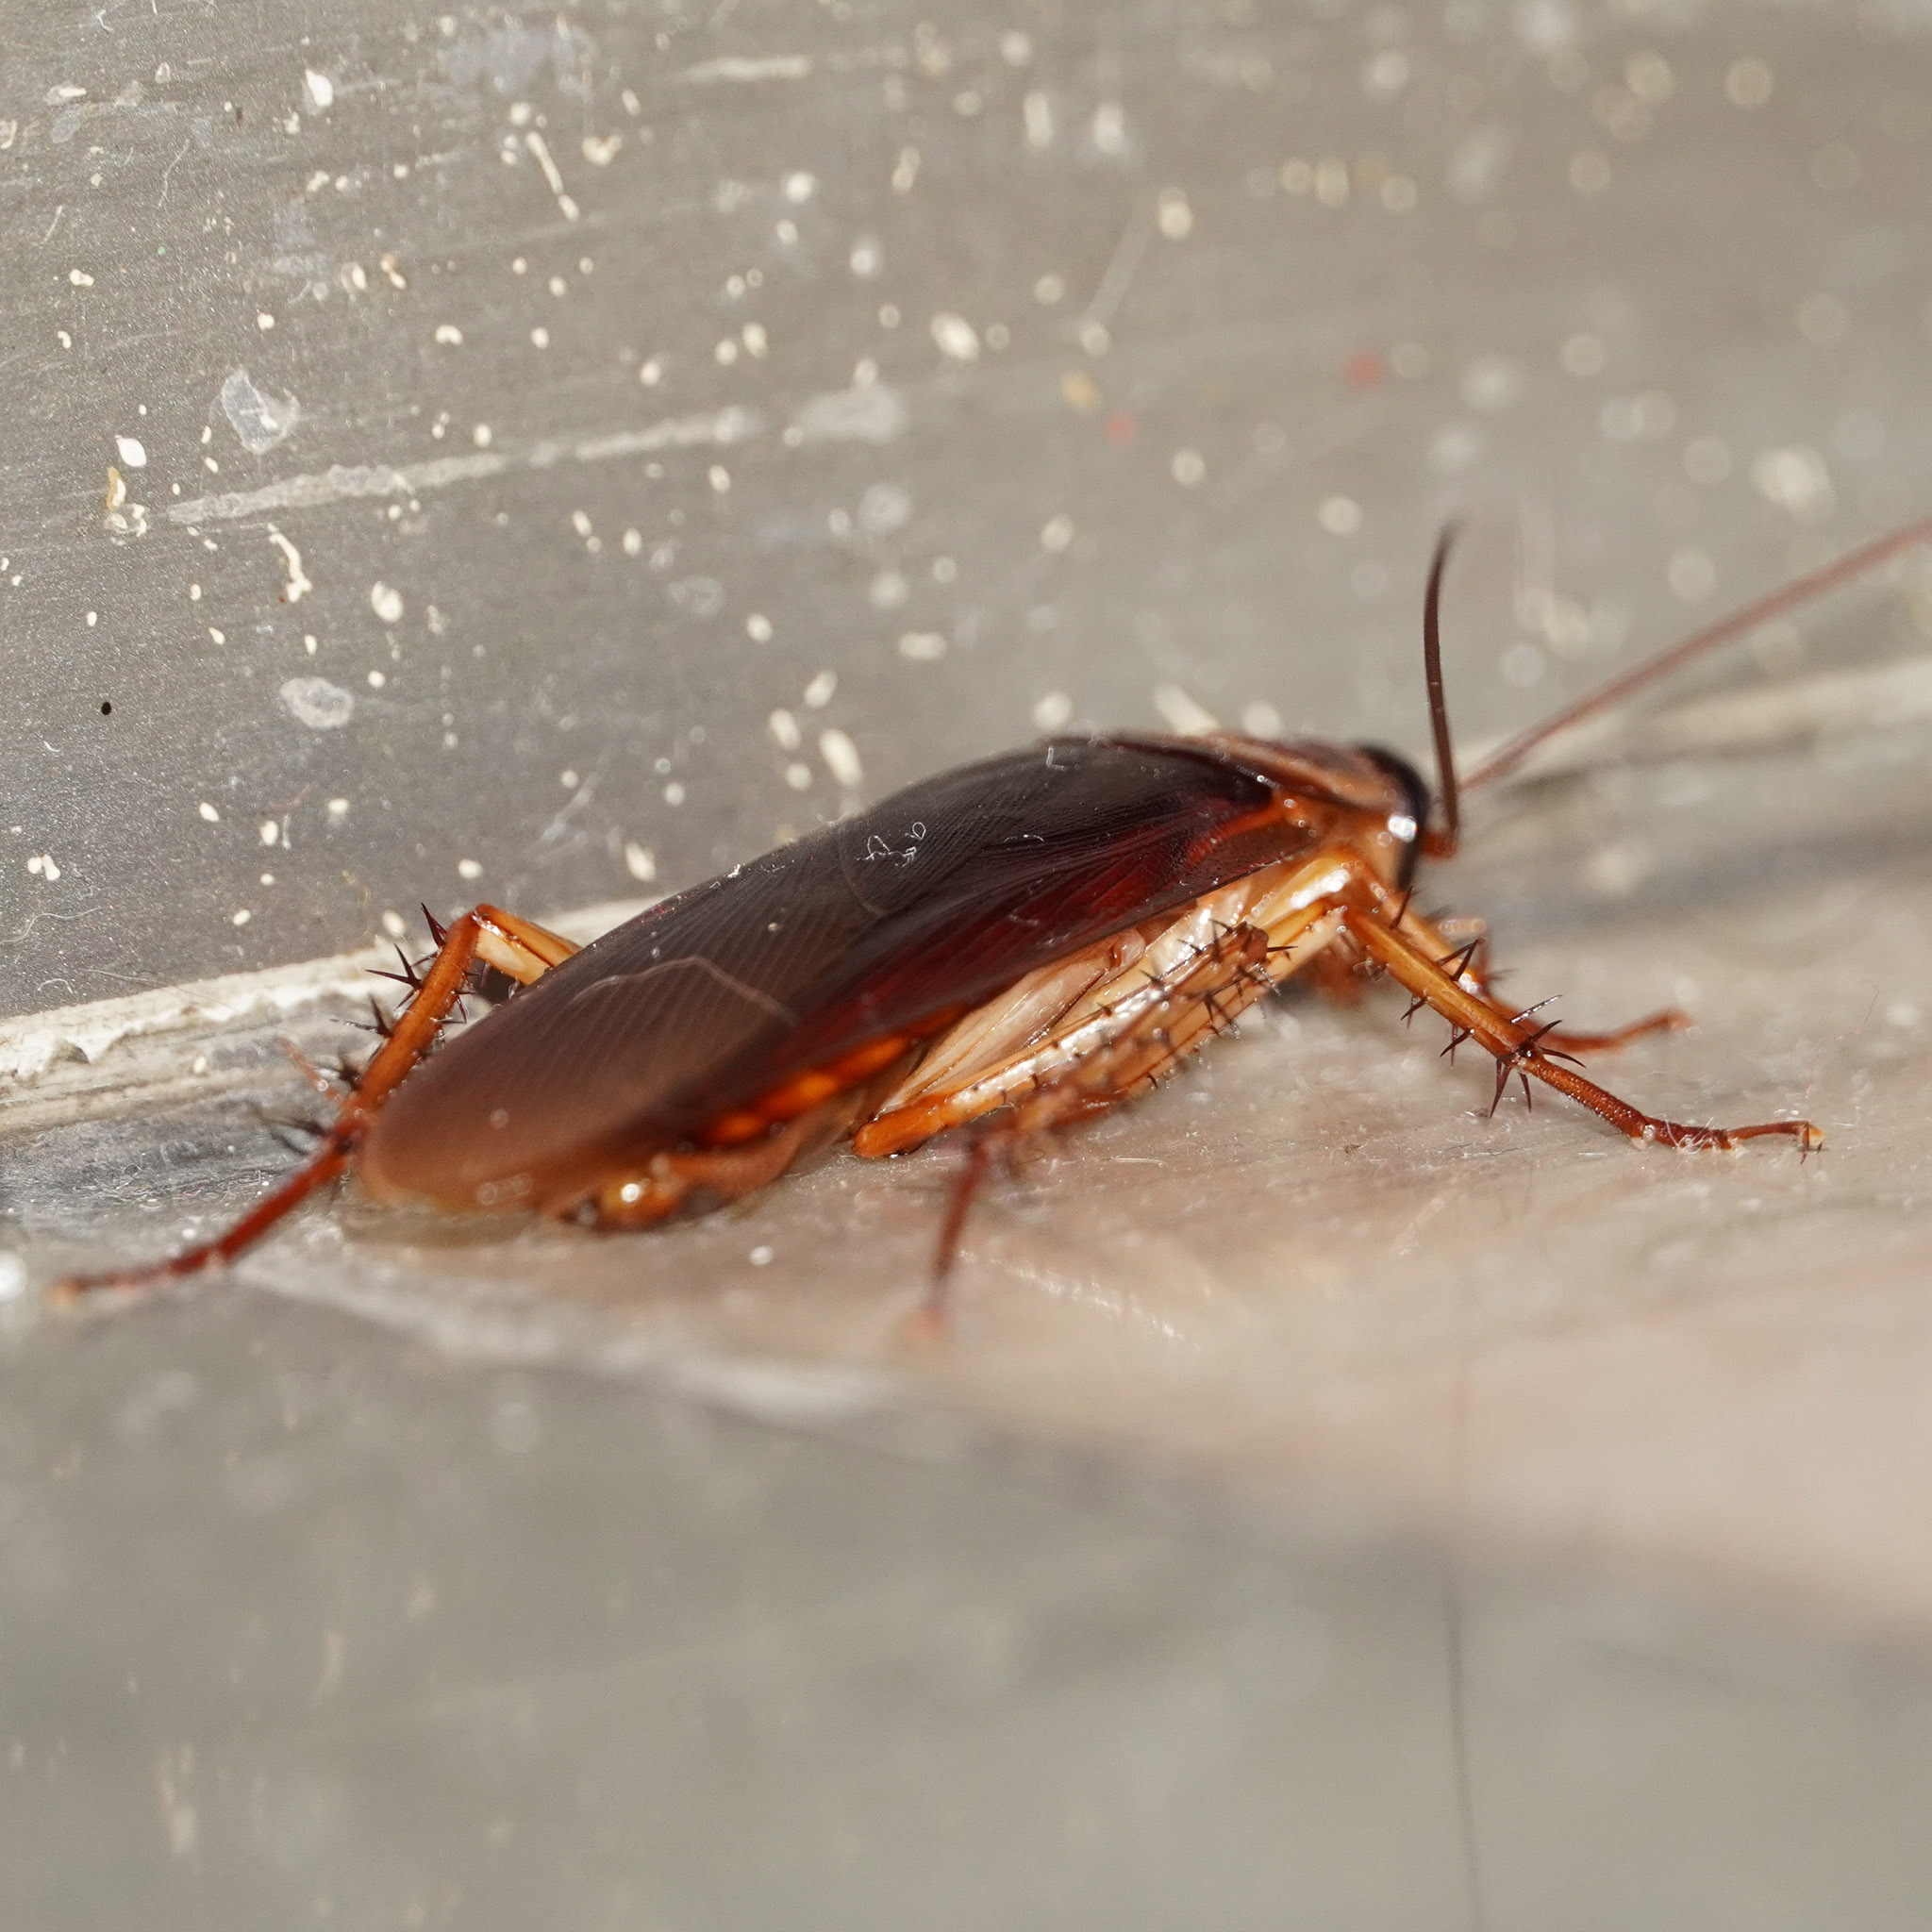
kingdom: Animalia
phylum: Arthropoda
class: Insecta
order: Blattodea
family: Blattidae
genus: Periplaneta
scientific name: Periplaneta americana
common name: American cockroach
